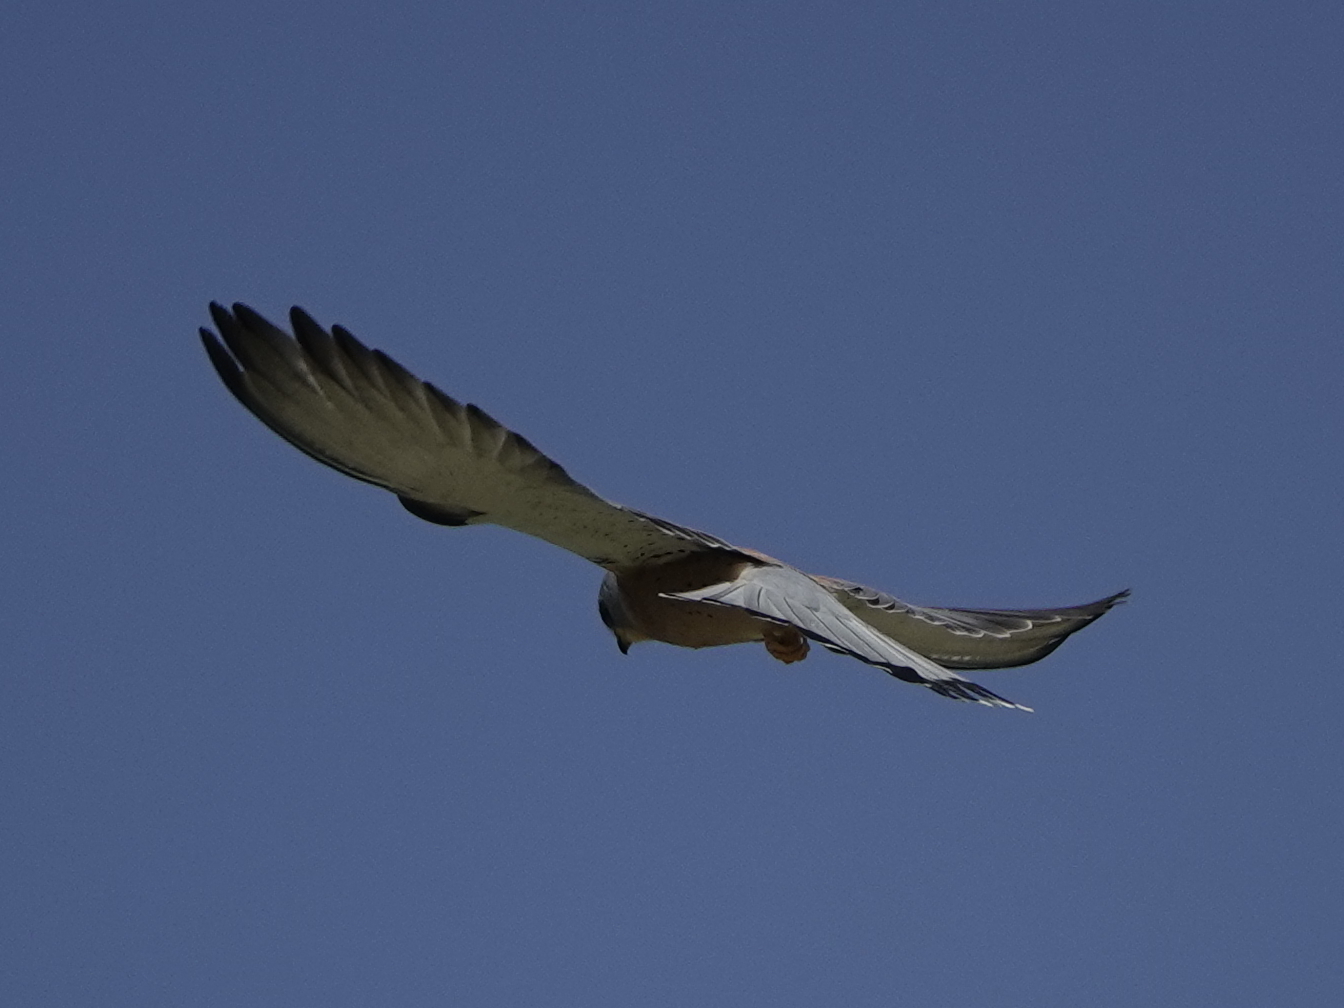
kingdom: Animalia
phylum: Chordata
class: Aves
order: Falconiformes
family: Falconidae
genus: Falco
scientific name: Falco naumanni
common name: Lesser kestrel
